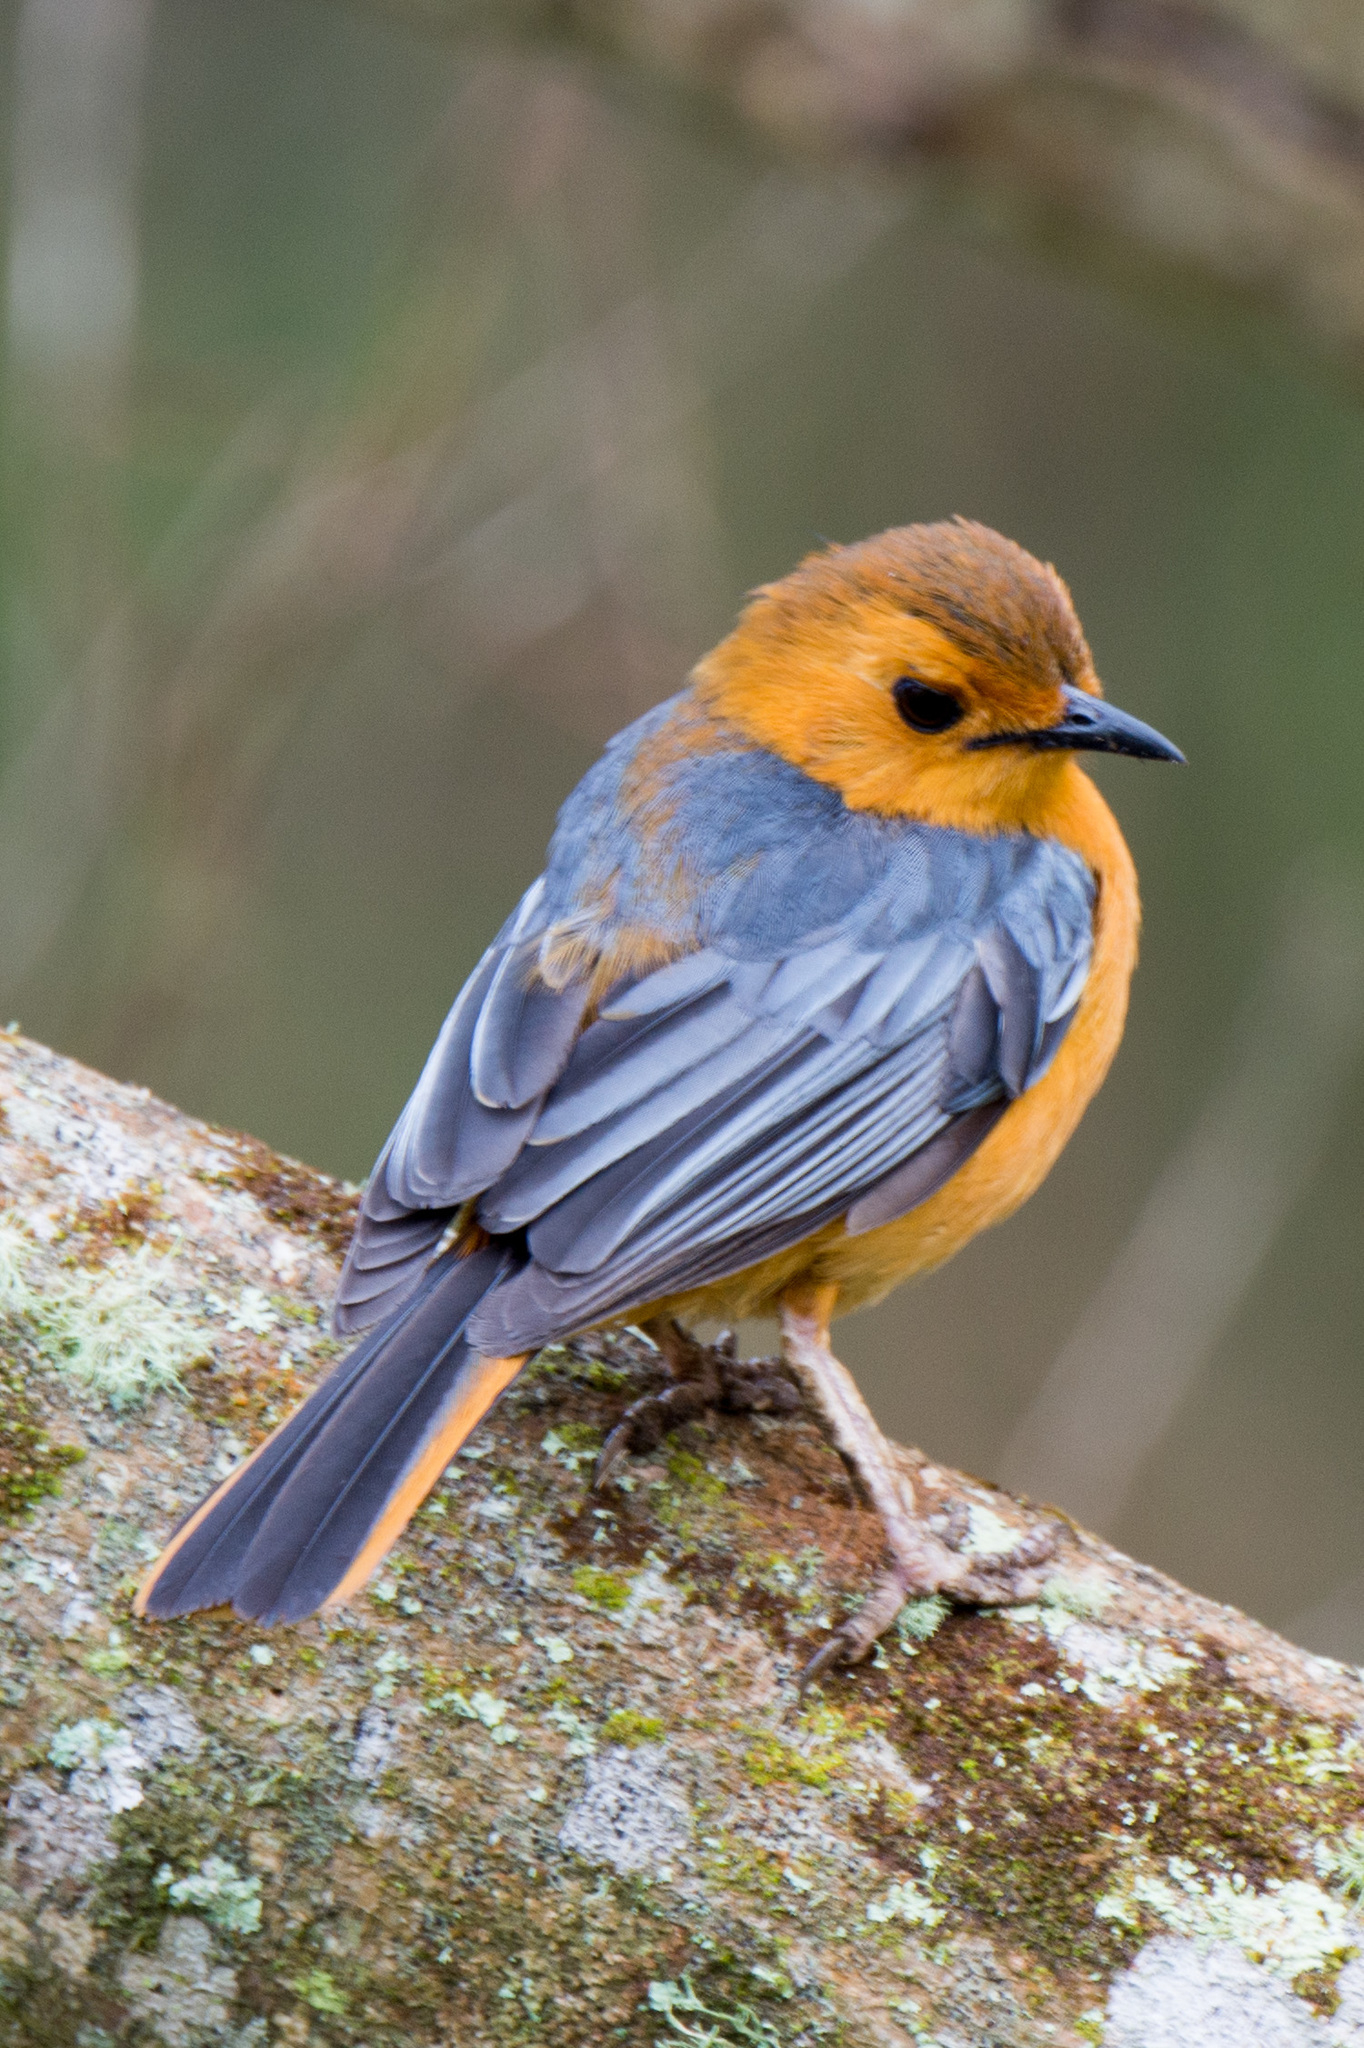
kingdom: Animalia
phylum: Chordata
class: Aves
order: Passeriformes
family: Muscicapidae
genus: Cossypha
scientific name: Cossypha natalensis
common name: Red-capped robin-chat
